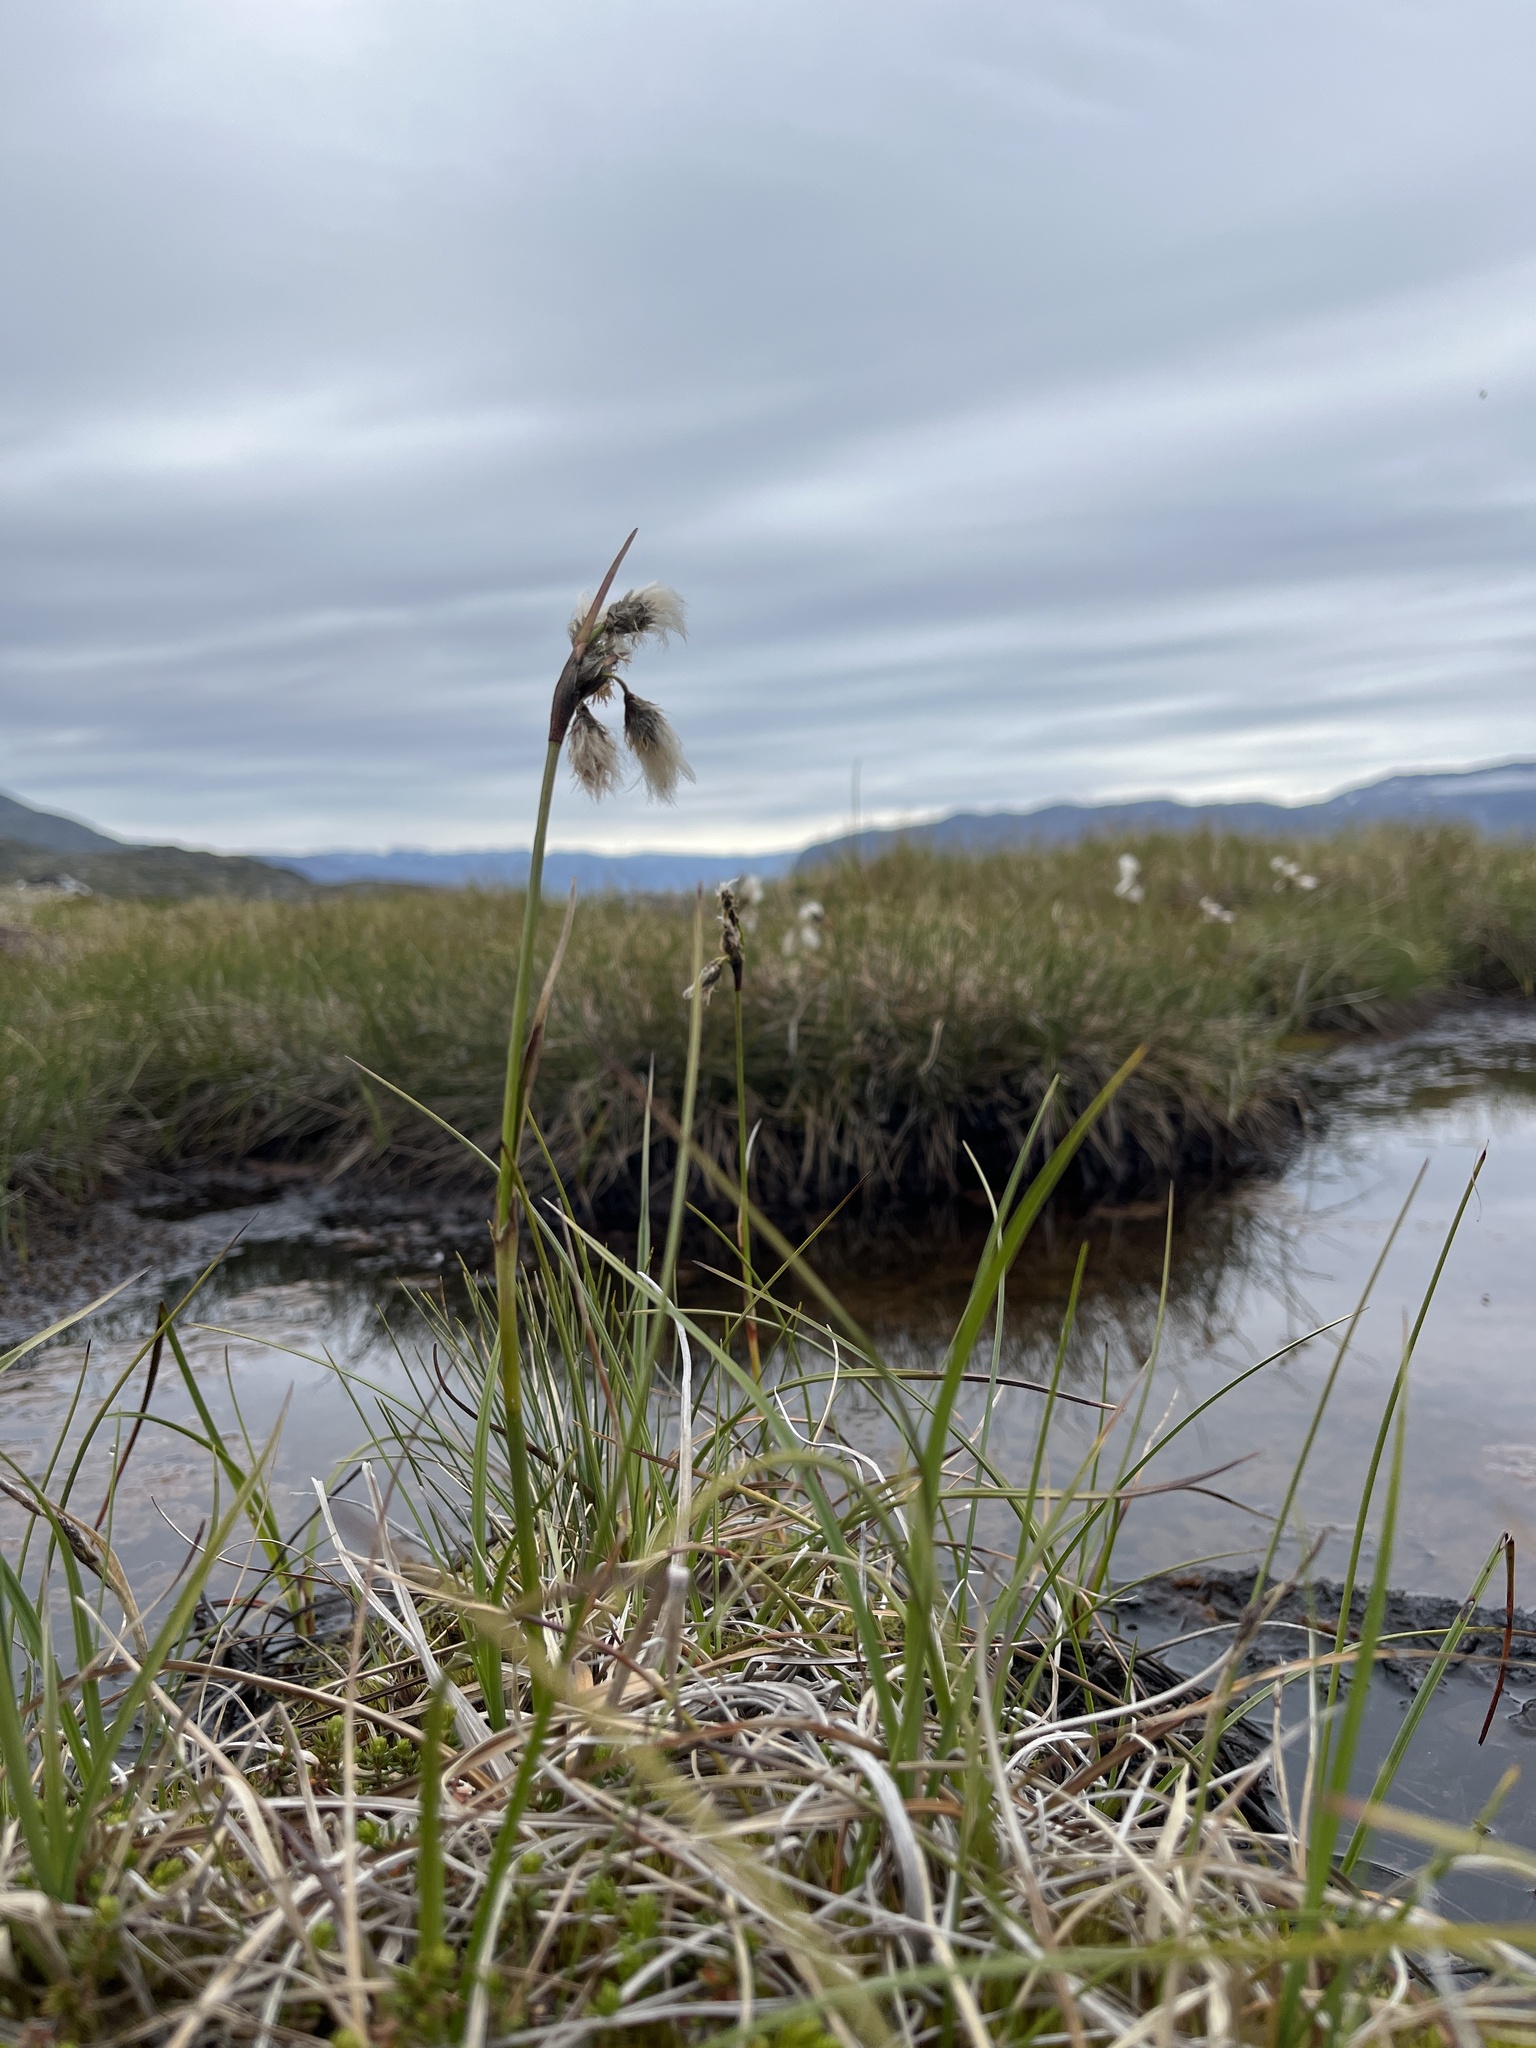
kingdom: Plantae
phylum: Tracheophyta
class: Liliopsida
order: Poales
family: Cyperaceae
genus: Eriophorum
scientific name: Eriophorum angustifolium
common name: Common cottongrass
